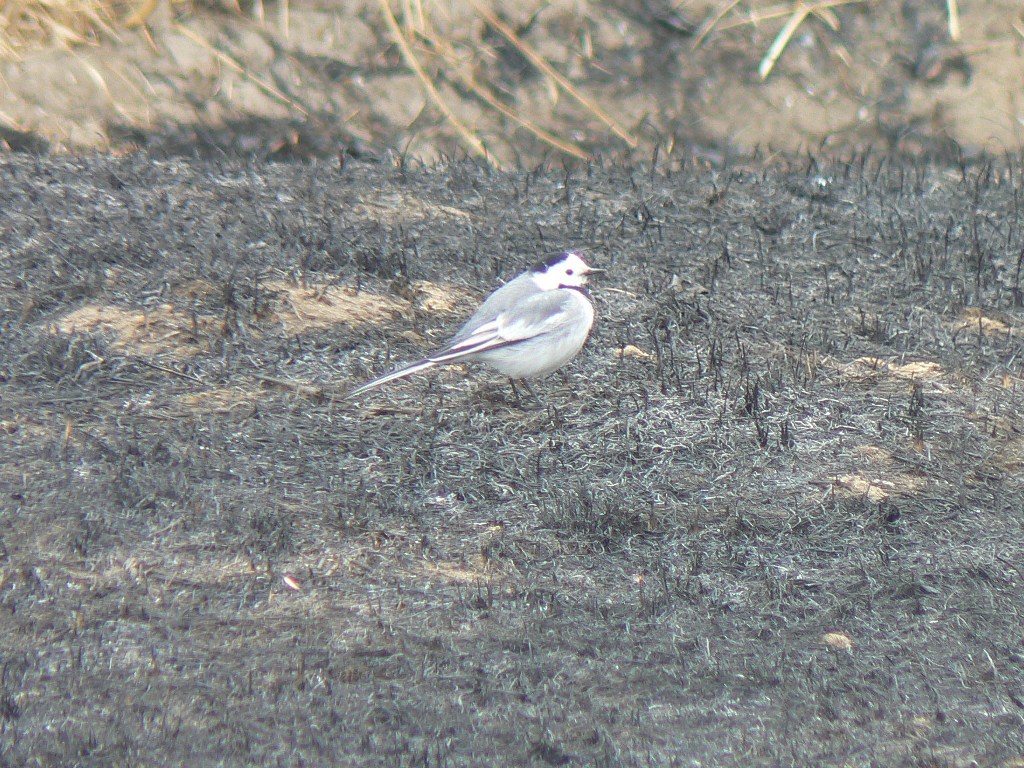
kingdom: Animalia
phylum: Chordata
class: Aves
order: Passeriformes
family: Motacillidae
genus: Motacilla
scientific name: Motacilla alba
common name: White wagtail
